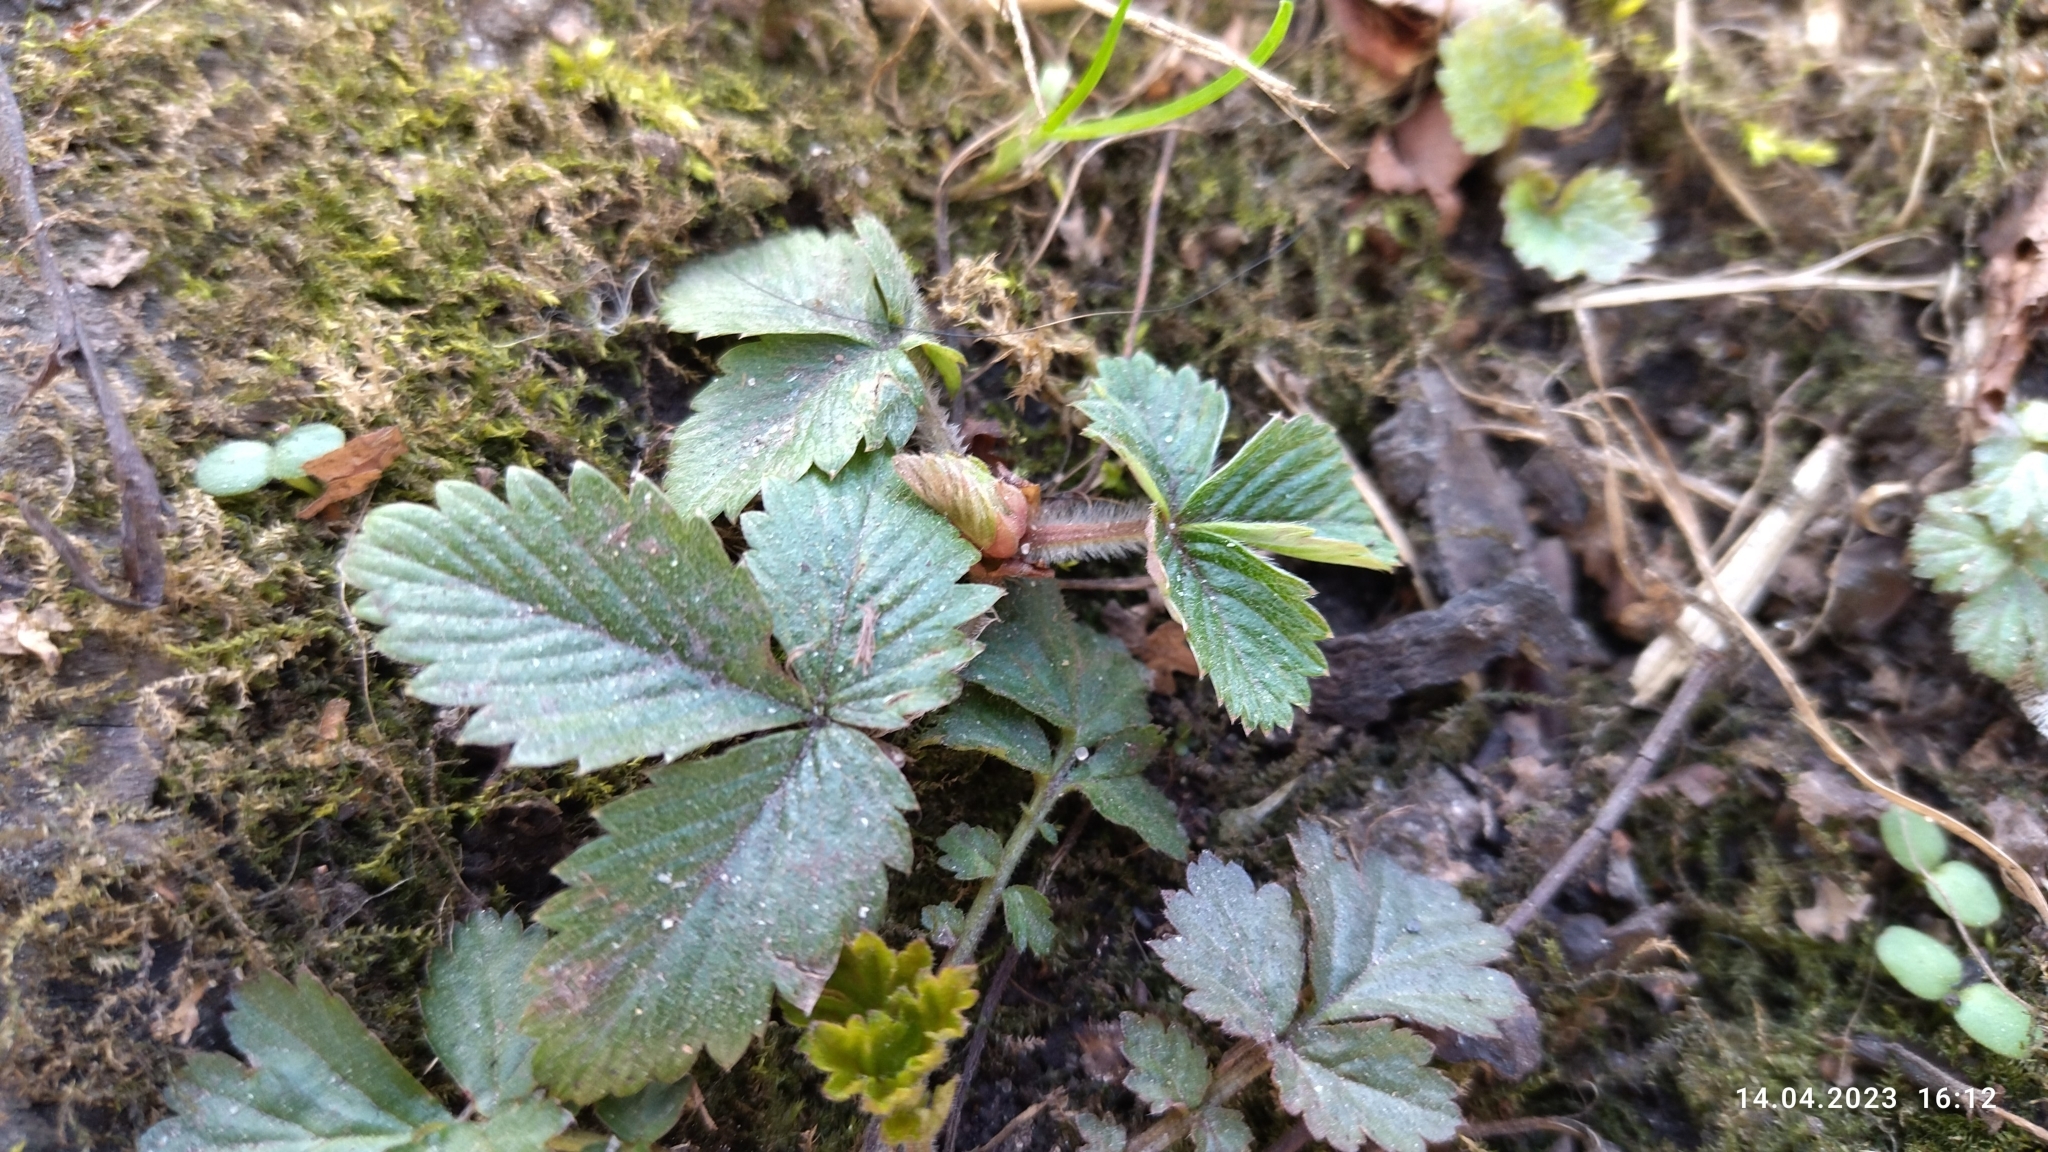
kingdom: Plantae
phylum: Tracheophyta
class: Magnoliopsida
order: Rosales
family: Rosaceae
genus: Fragaria
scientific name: Fragaria vesca
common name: Wild strawberry
